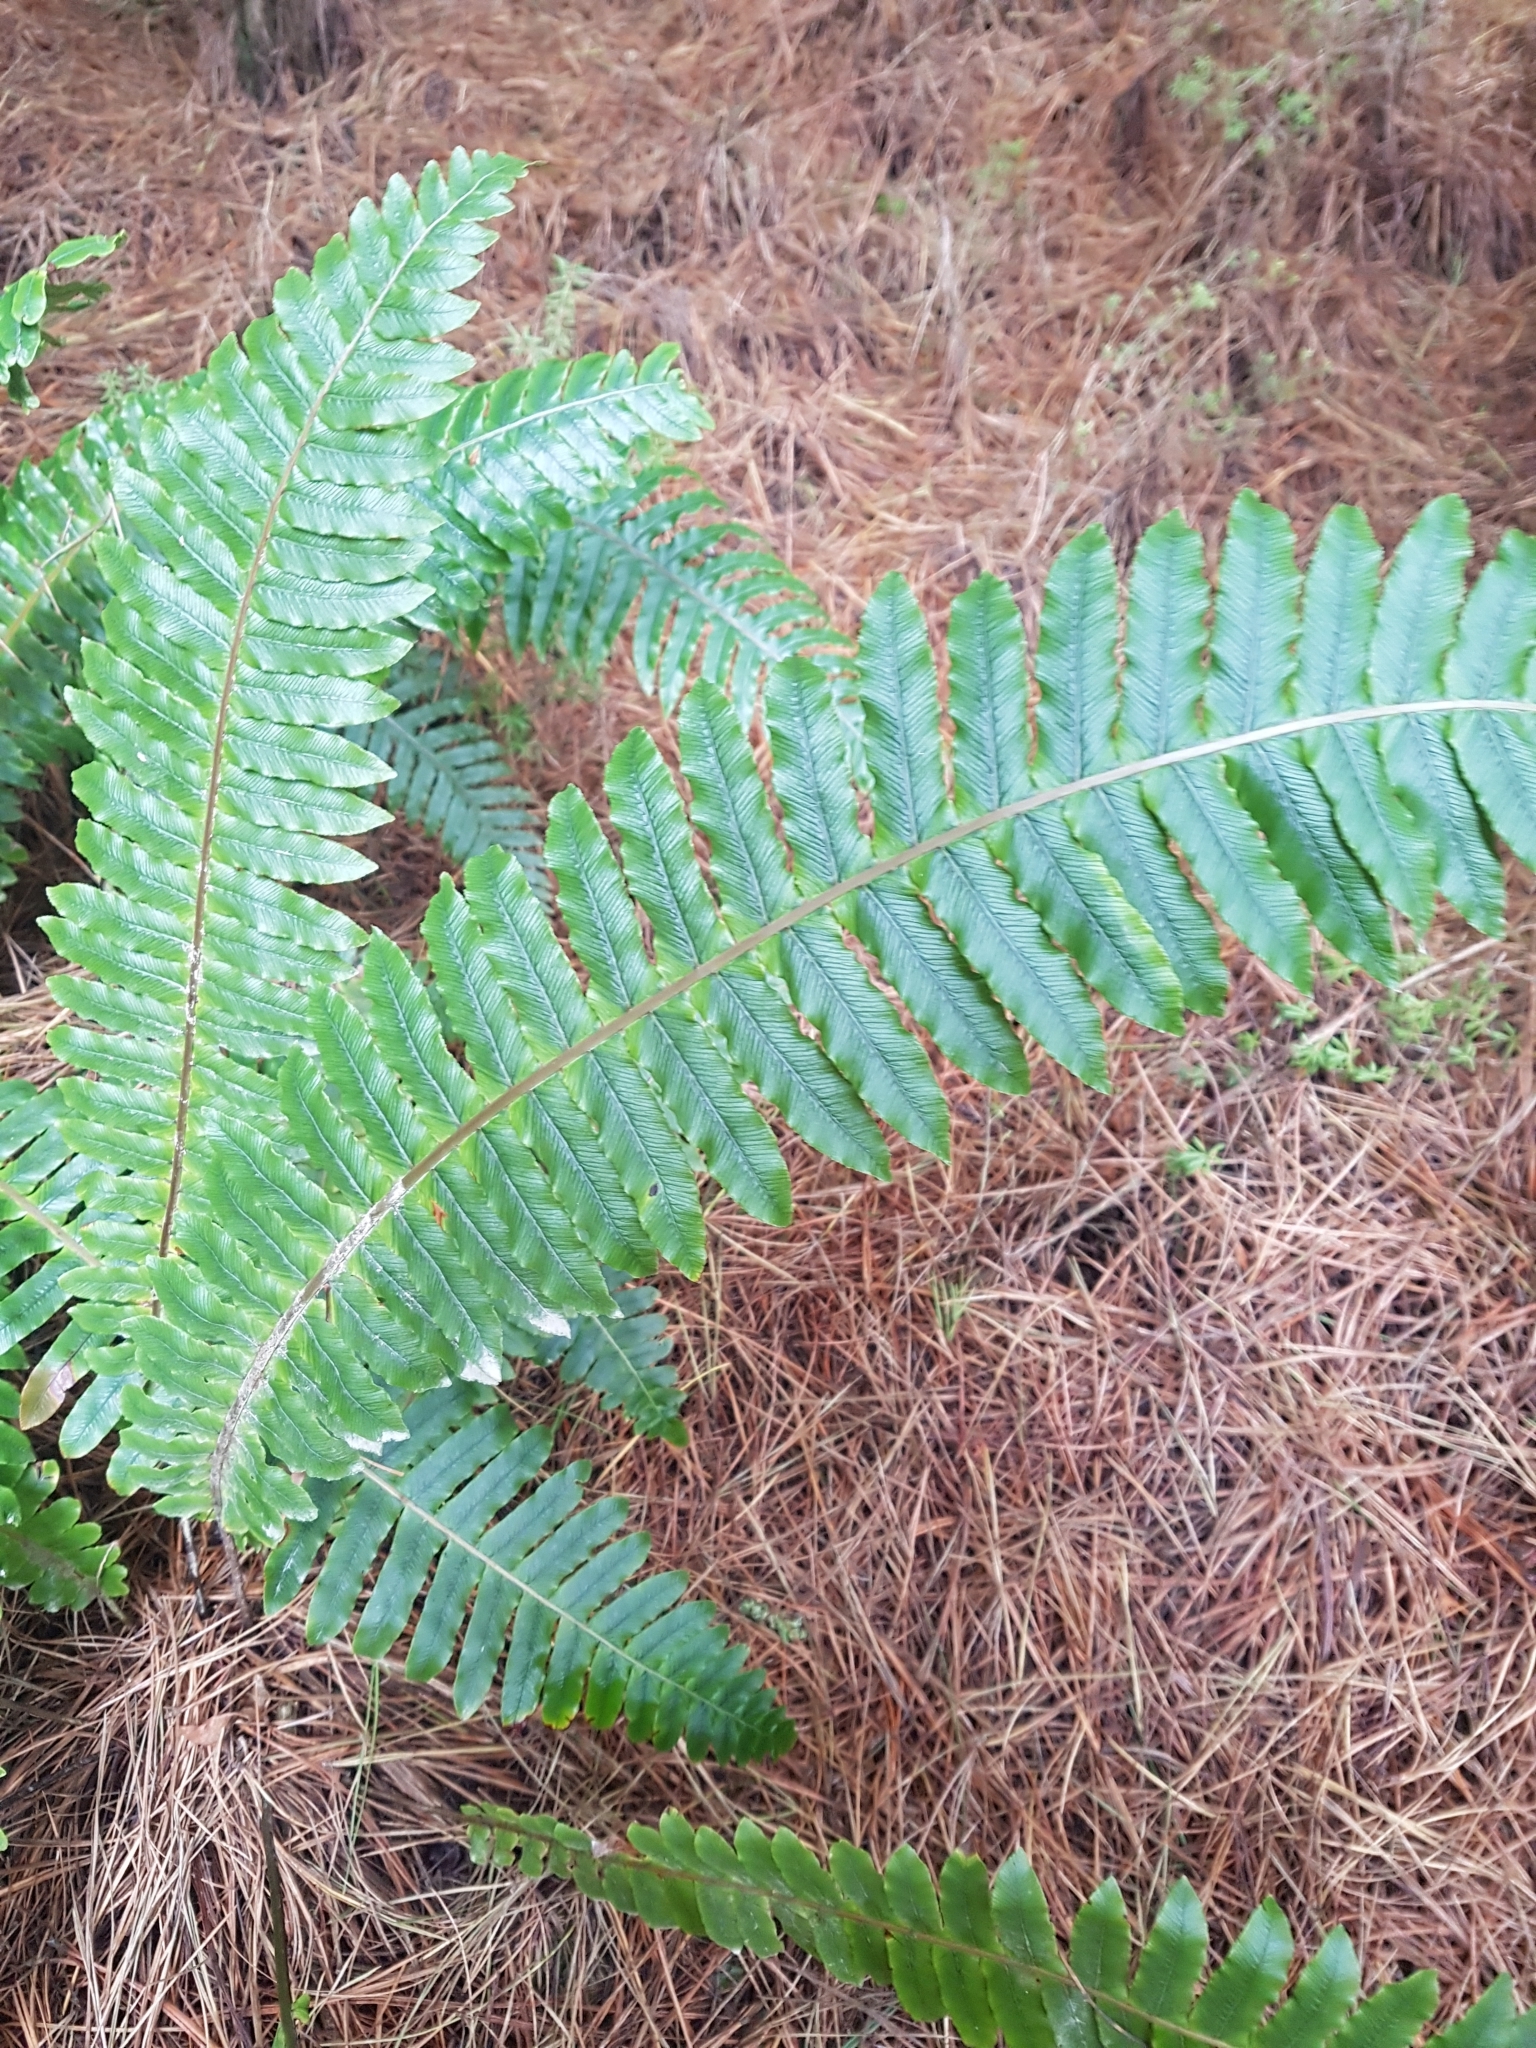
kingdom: Plantae
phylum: Tracheophyta
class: Polypodiopsida
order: Polypodiales
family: Blechnaceae
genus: Lomaria
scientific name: Lomaria discolor
